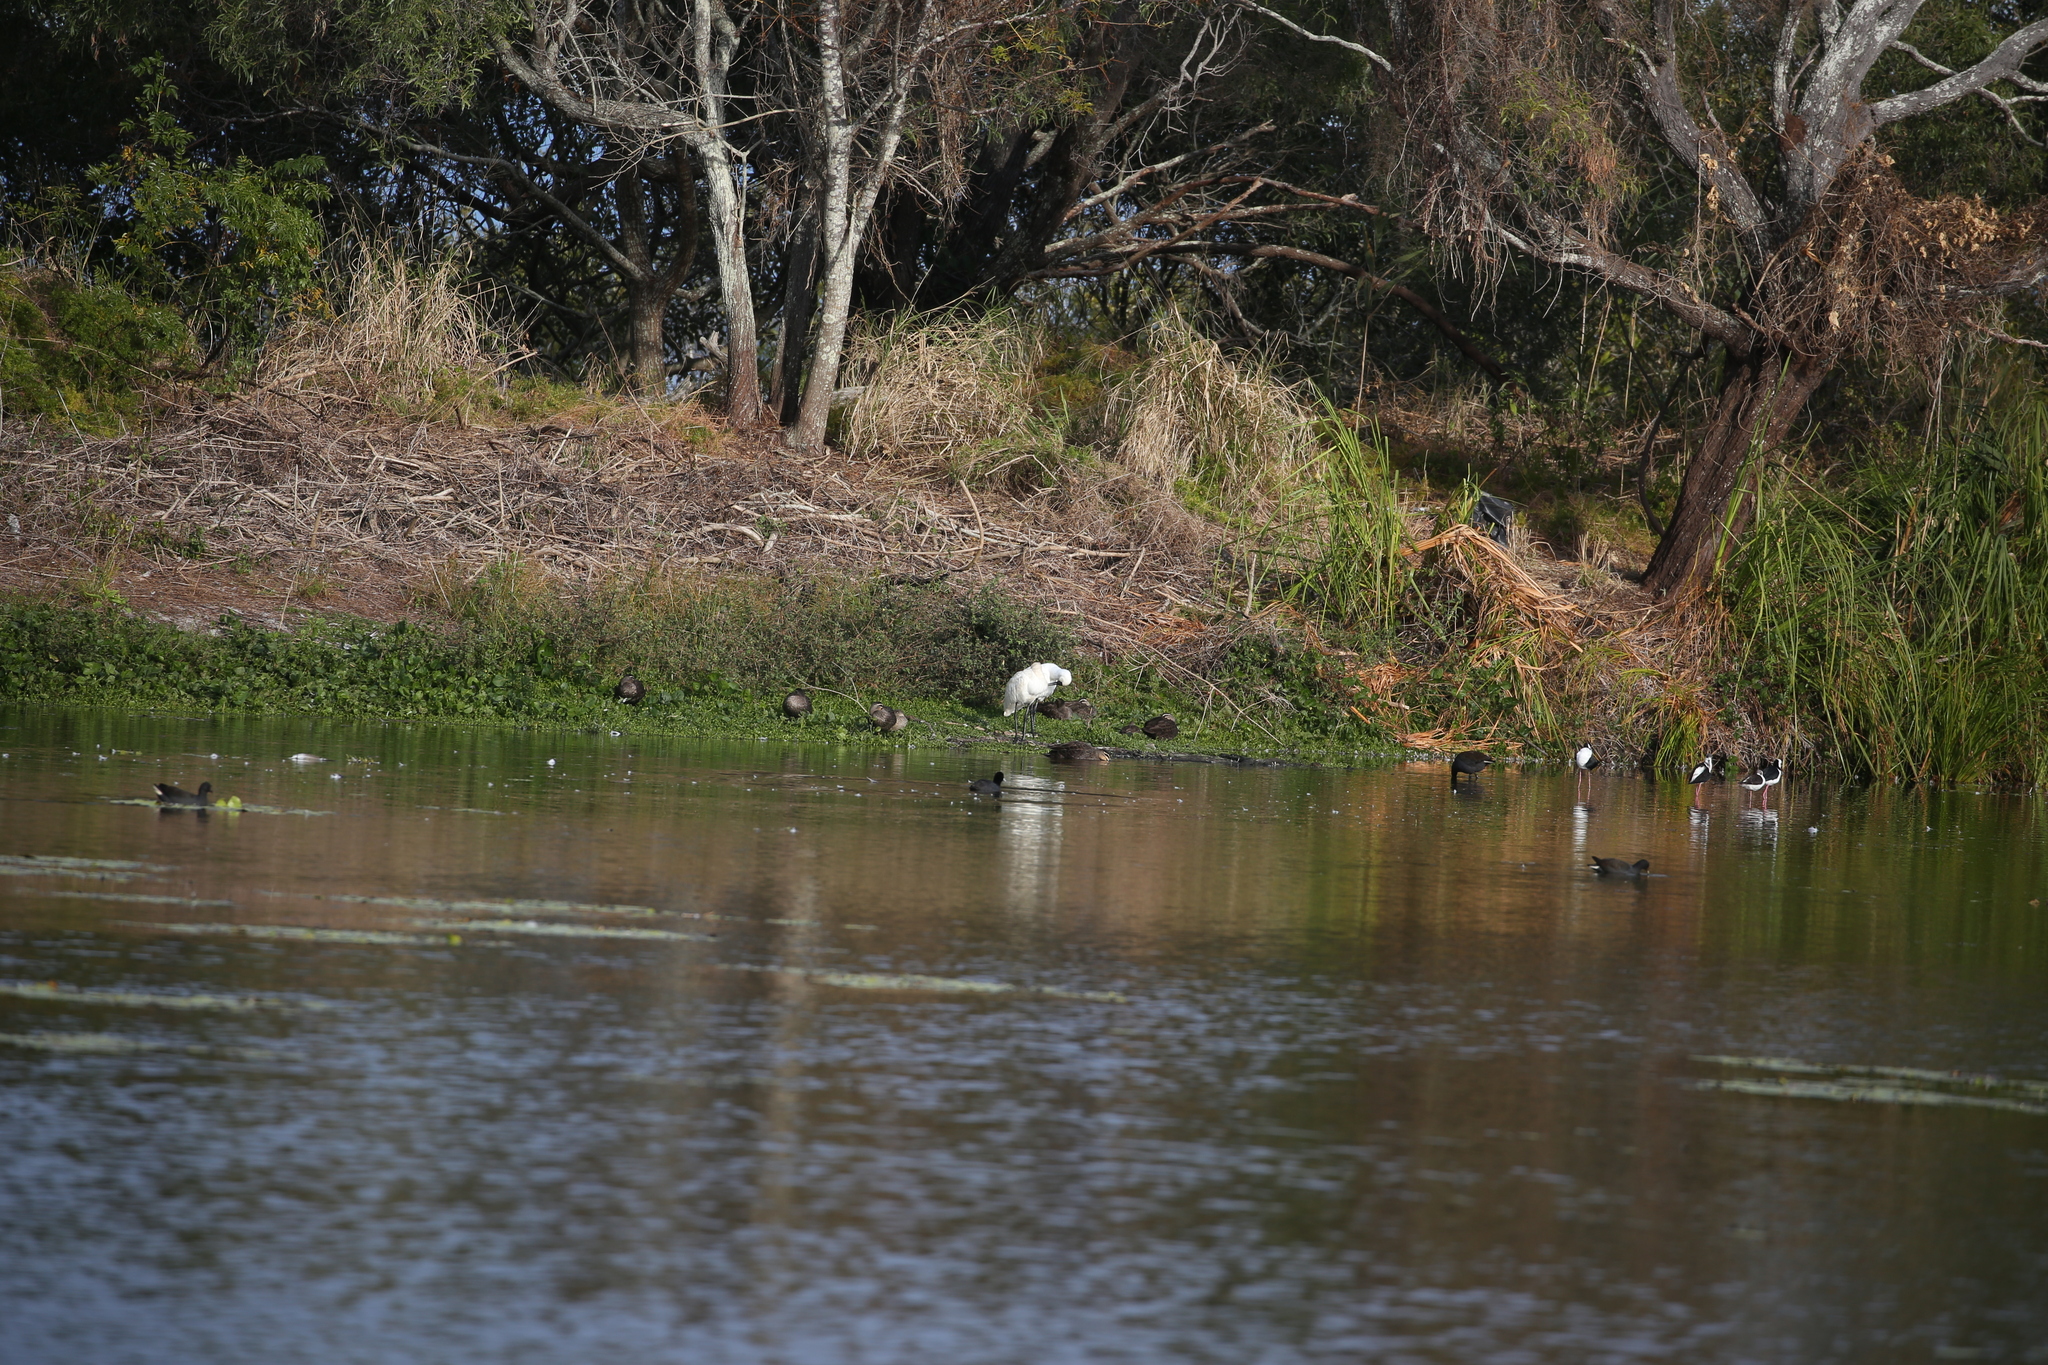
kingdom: Animalia
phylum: Chordata
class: Aves
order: Pelecaniformes
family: Threskiornithidae
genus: Platalea
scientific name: Platalea regia
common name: Royal spoonbill
